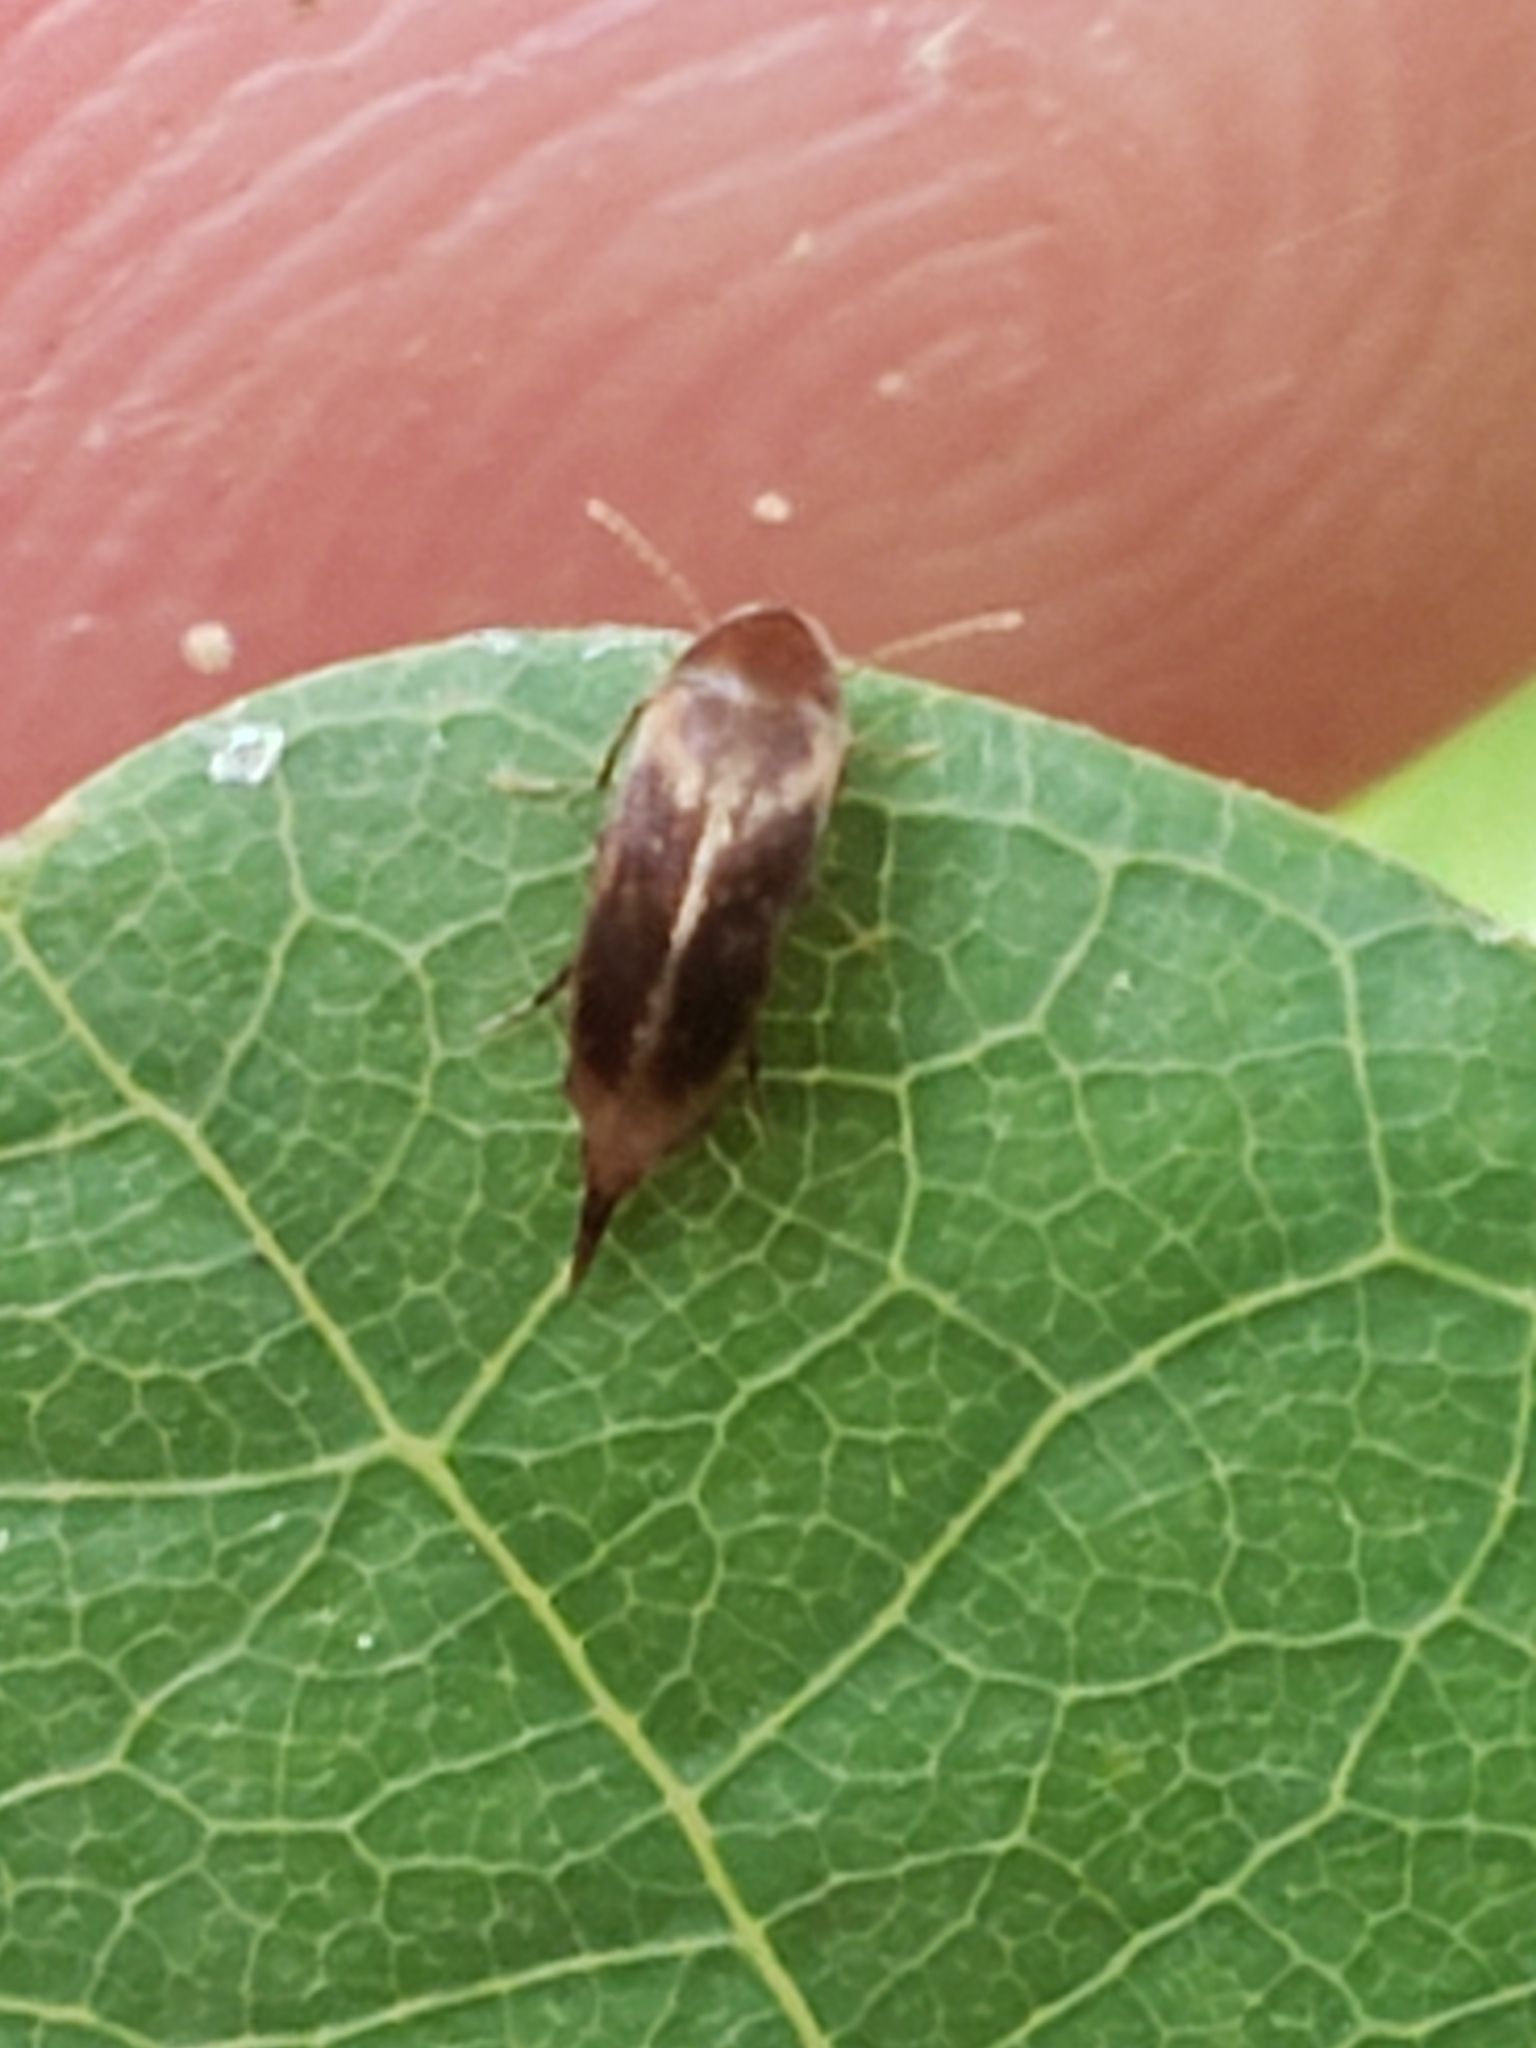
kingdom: Animalia
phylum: Arthropoda
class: Insecta
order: Coleoptera
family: Mordellidae
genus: Mordellistena
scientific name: Mordellistena masoni
